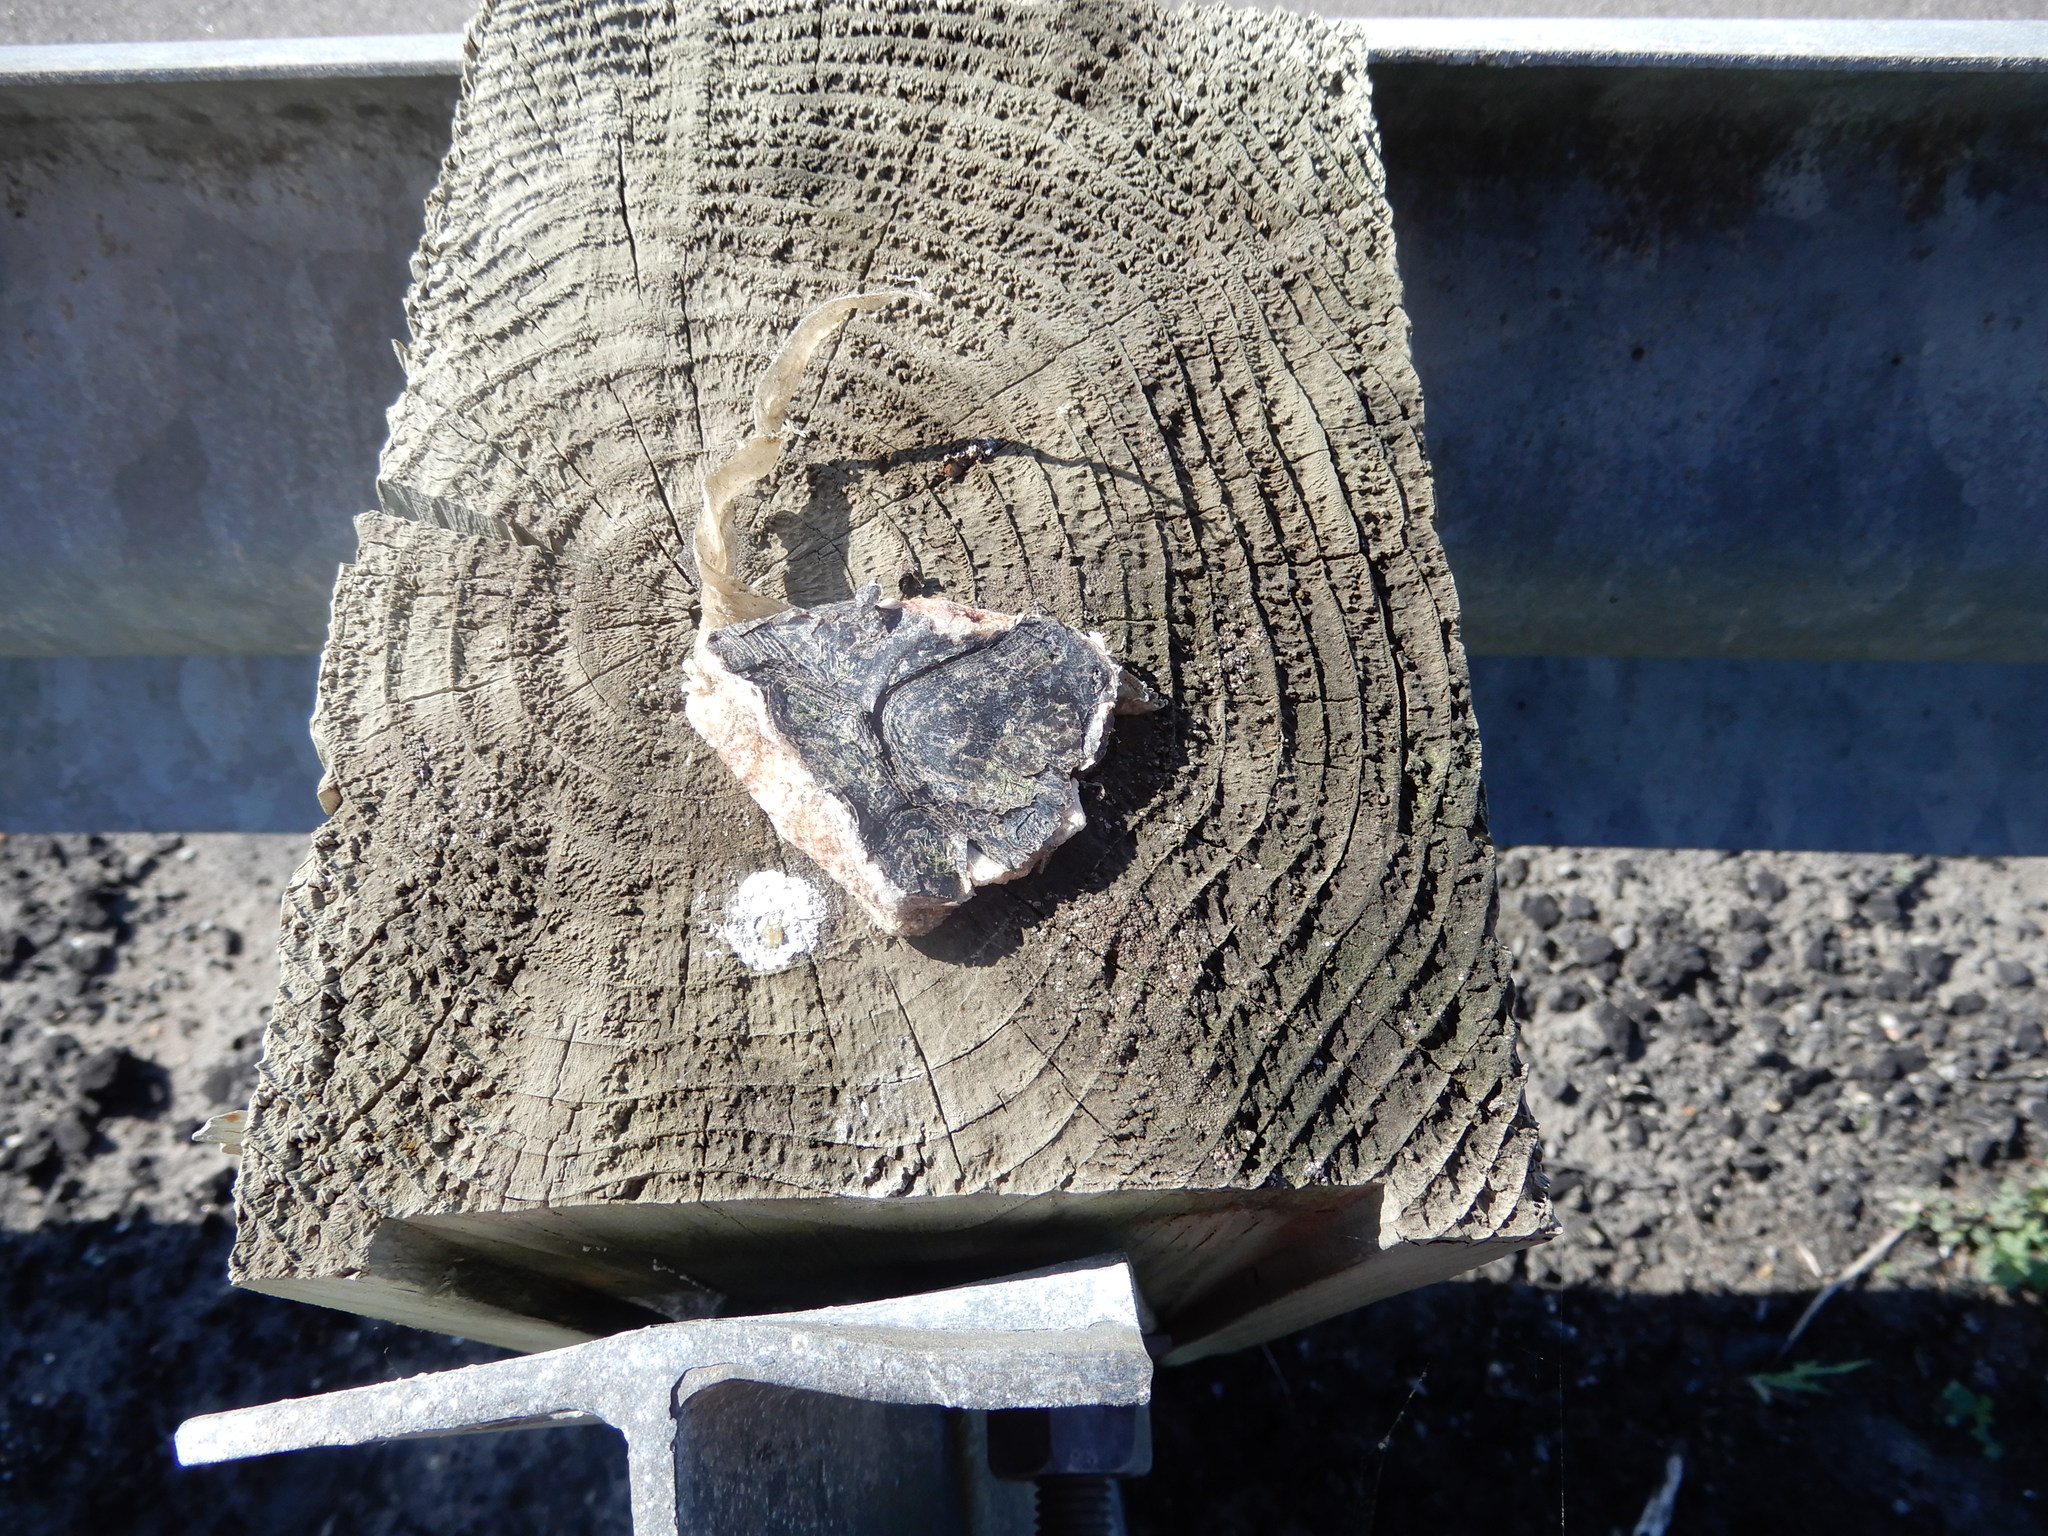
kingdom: Animalia
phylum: Chordata
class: Testudines
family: Chelydridae
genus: Chelydra
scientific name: Chelydra serpentina
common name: Common snapping turtle
